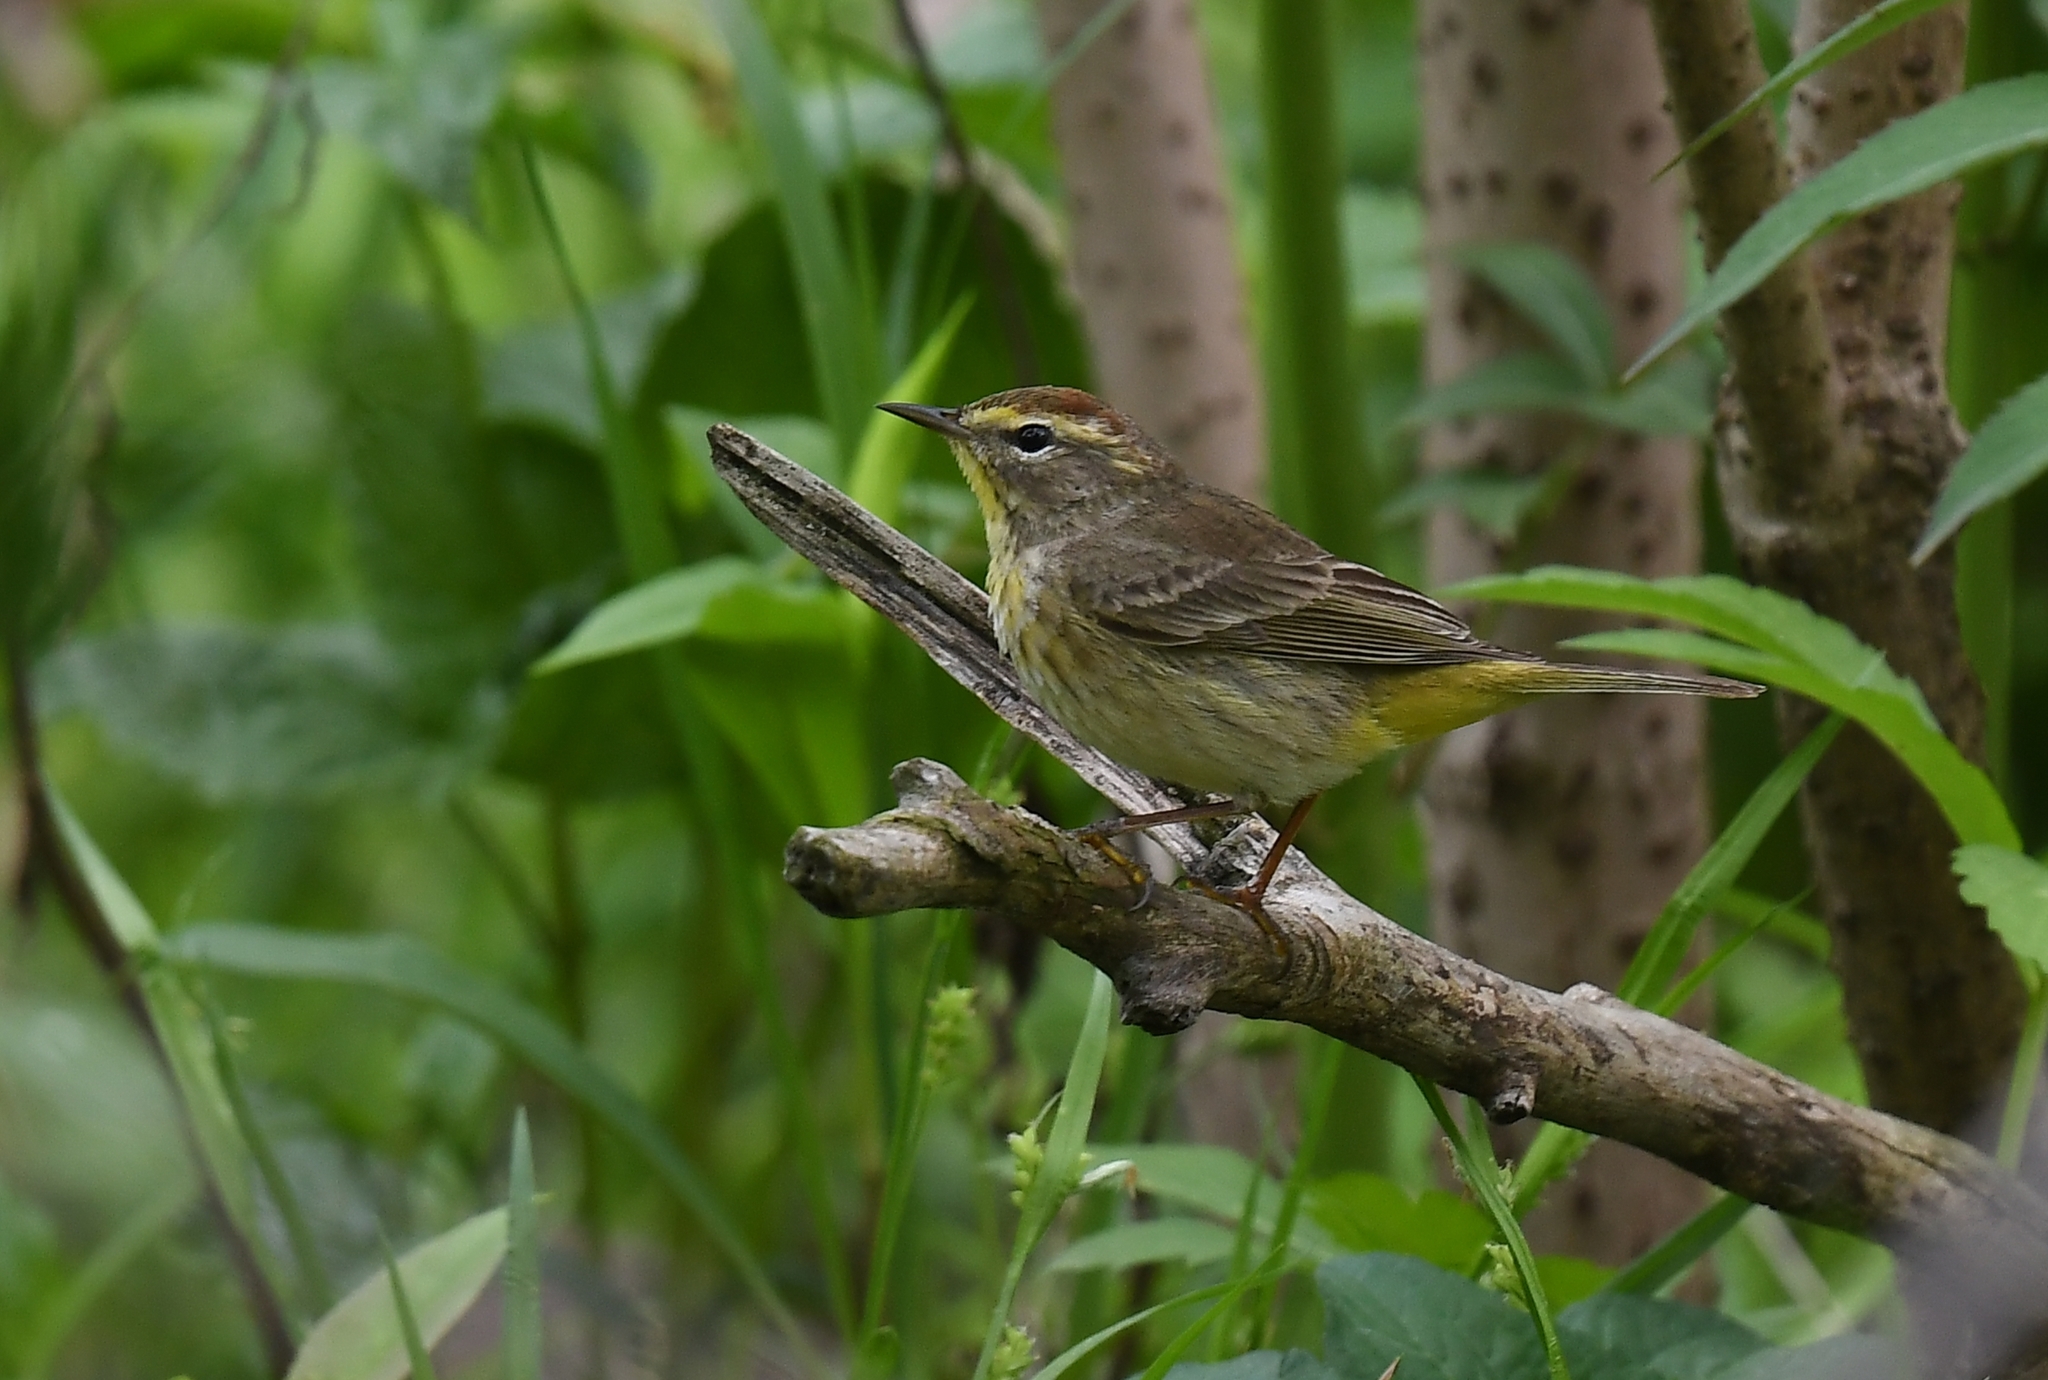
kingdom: Animalia
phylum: Chordata
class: Aves
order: Passeriformes
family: Parulidae
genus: Setophaga
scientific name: Setophaga palmarum
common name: Palm warbler
